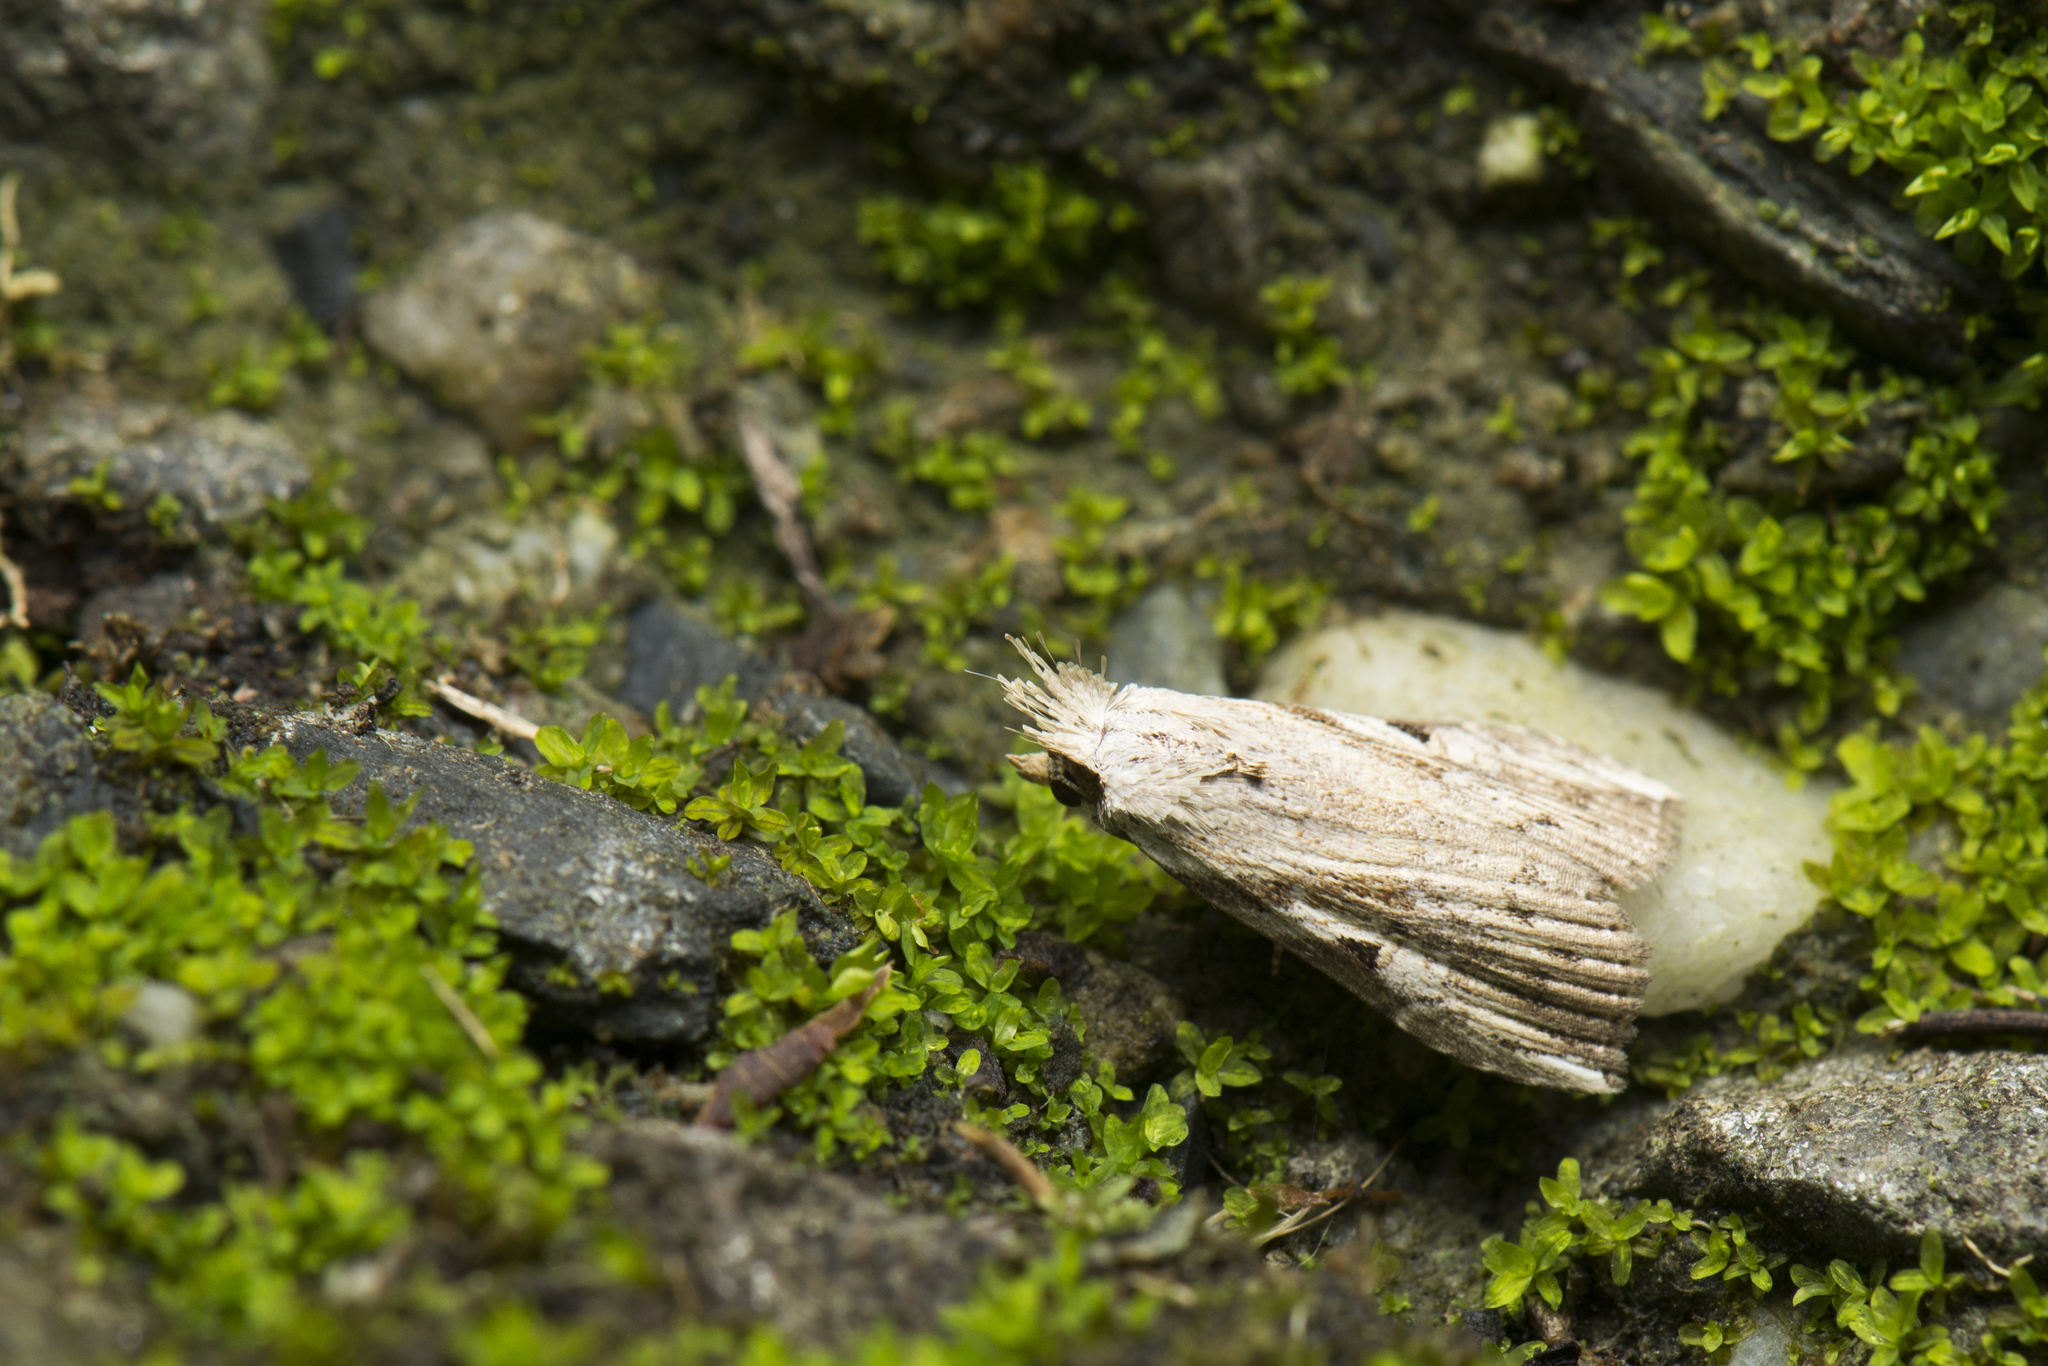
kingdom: Animalia
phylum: Arthropoda
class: Insecta
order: Lepidoptera
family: Noctuidae
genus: Microxyla
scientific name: Microxyla confusa
